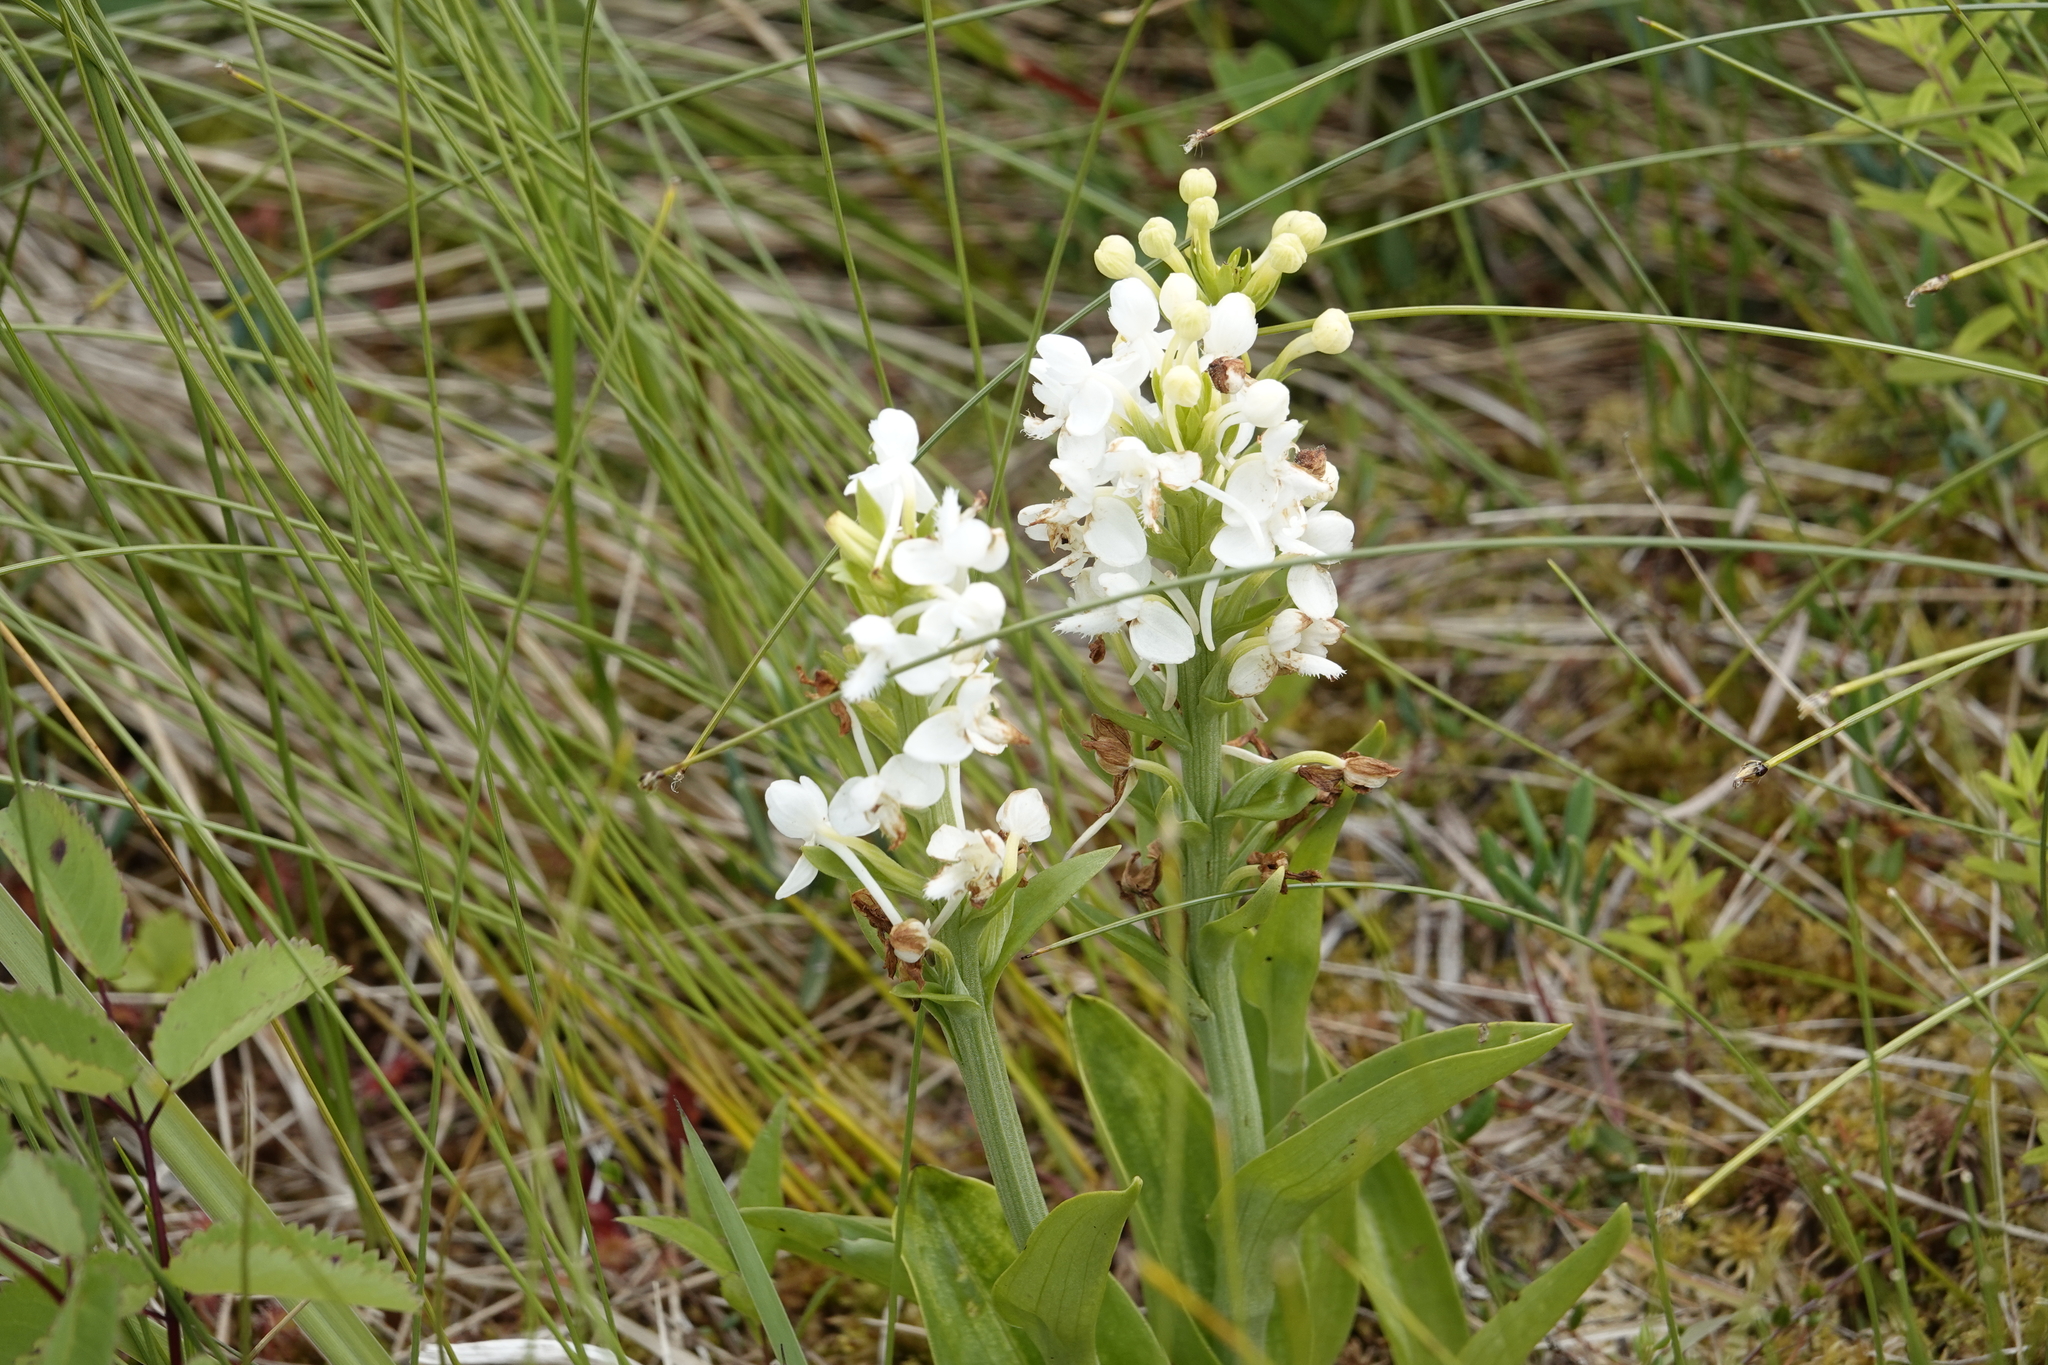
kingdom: Plantae
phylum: Tracheophyta
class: Liliopsida
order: Asparagales
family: Orchidaceae
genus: Platanthera
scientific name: Platanthera blephariglottis
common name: White fringed orchid
